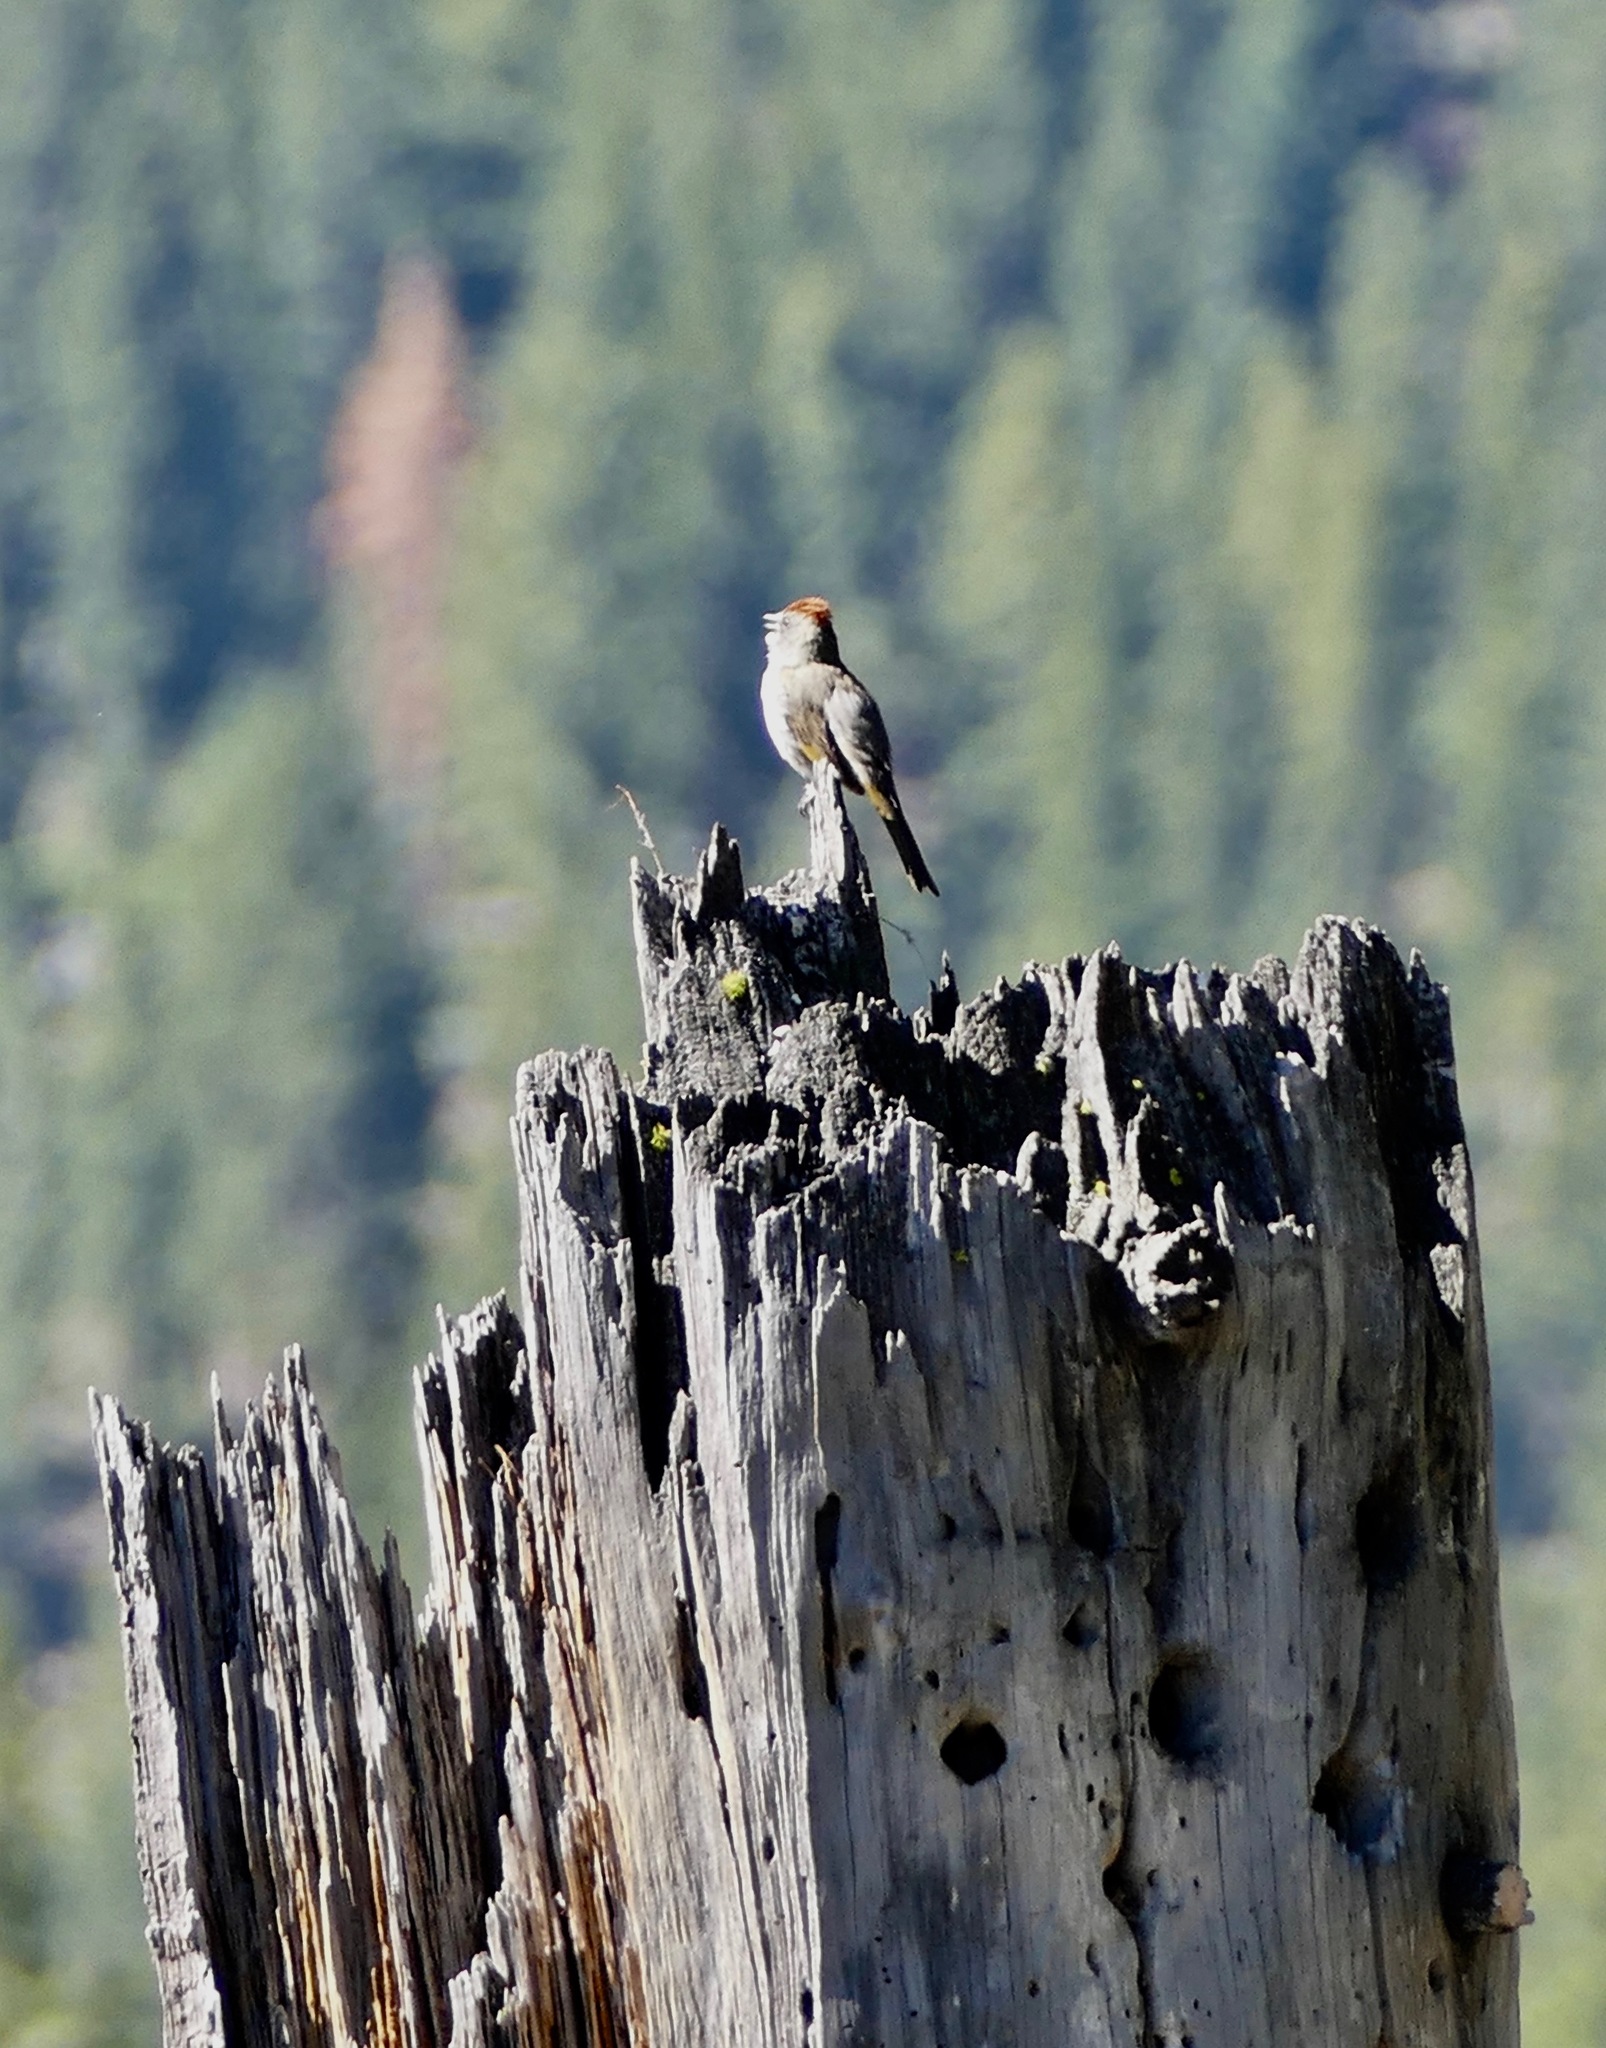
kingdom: Animalia
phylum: Chordata
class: Aves
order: Passeriformes
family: Passerellidae
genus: Pipilo
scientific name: Pipilo chlorurus
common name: Green-tailed towhee
